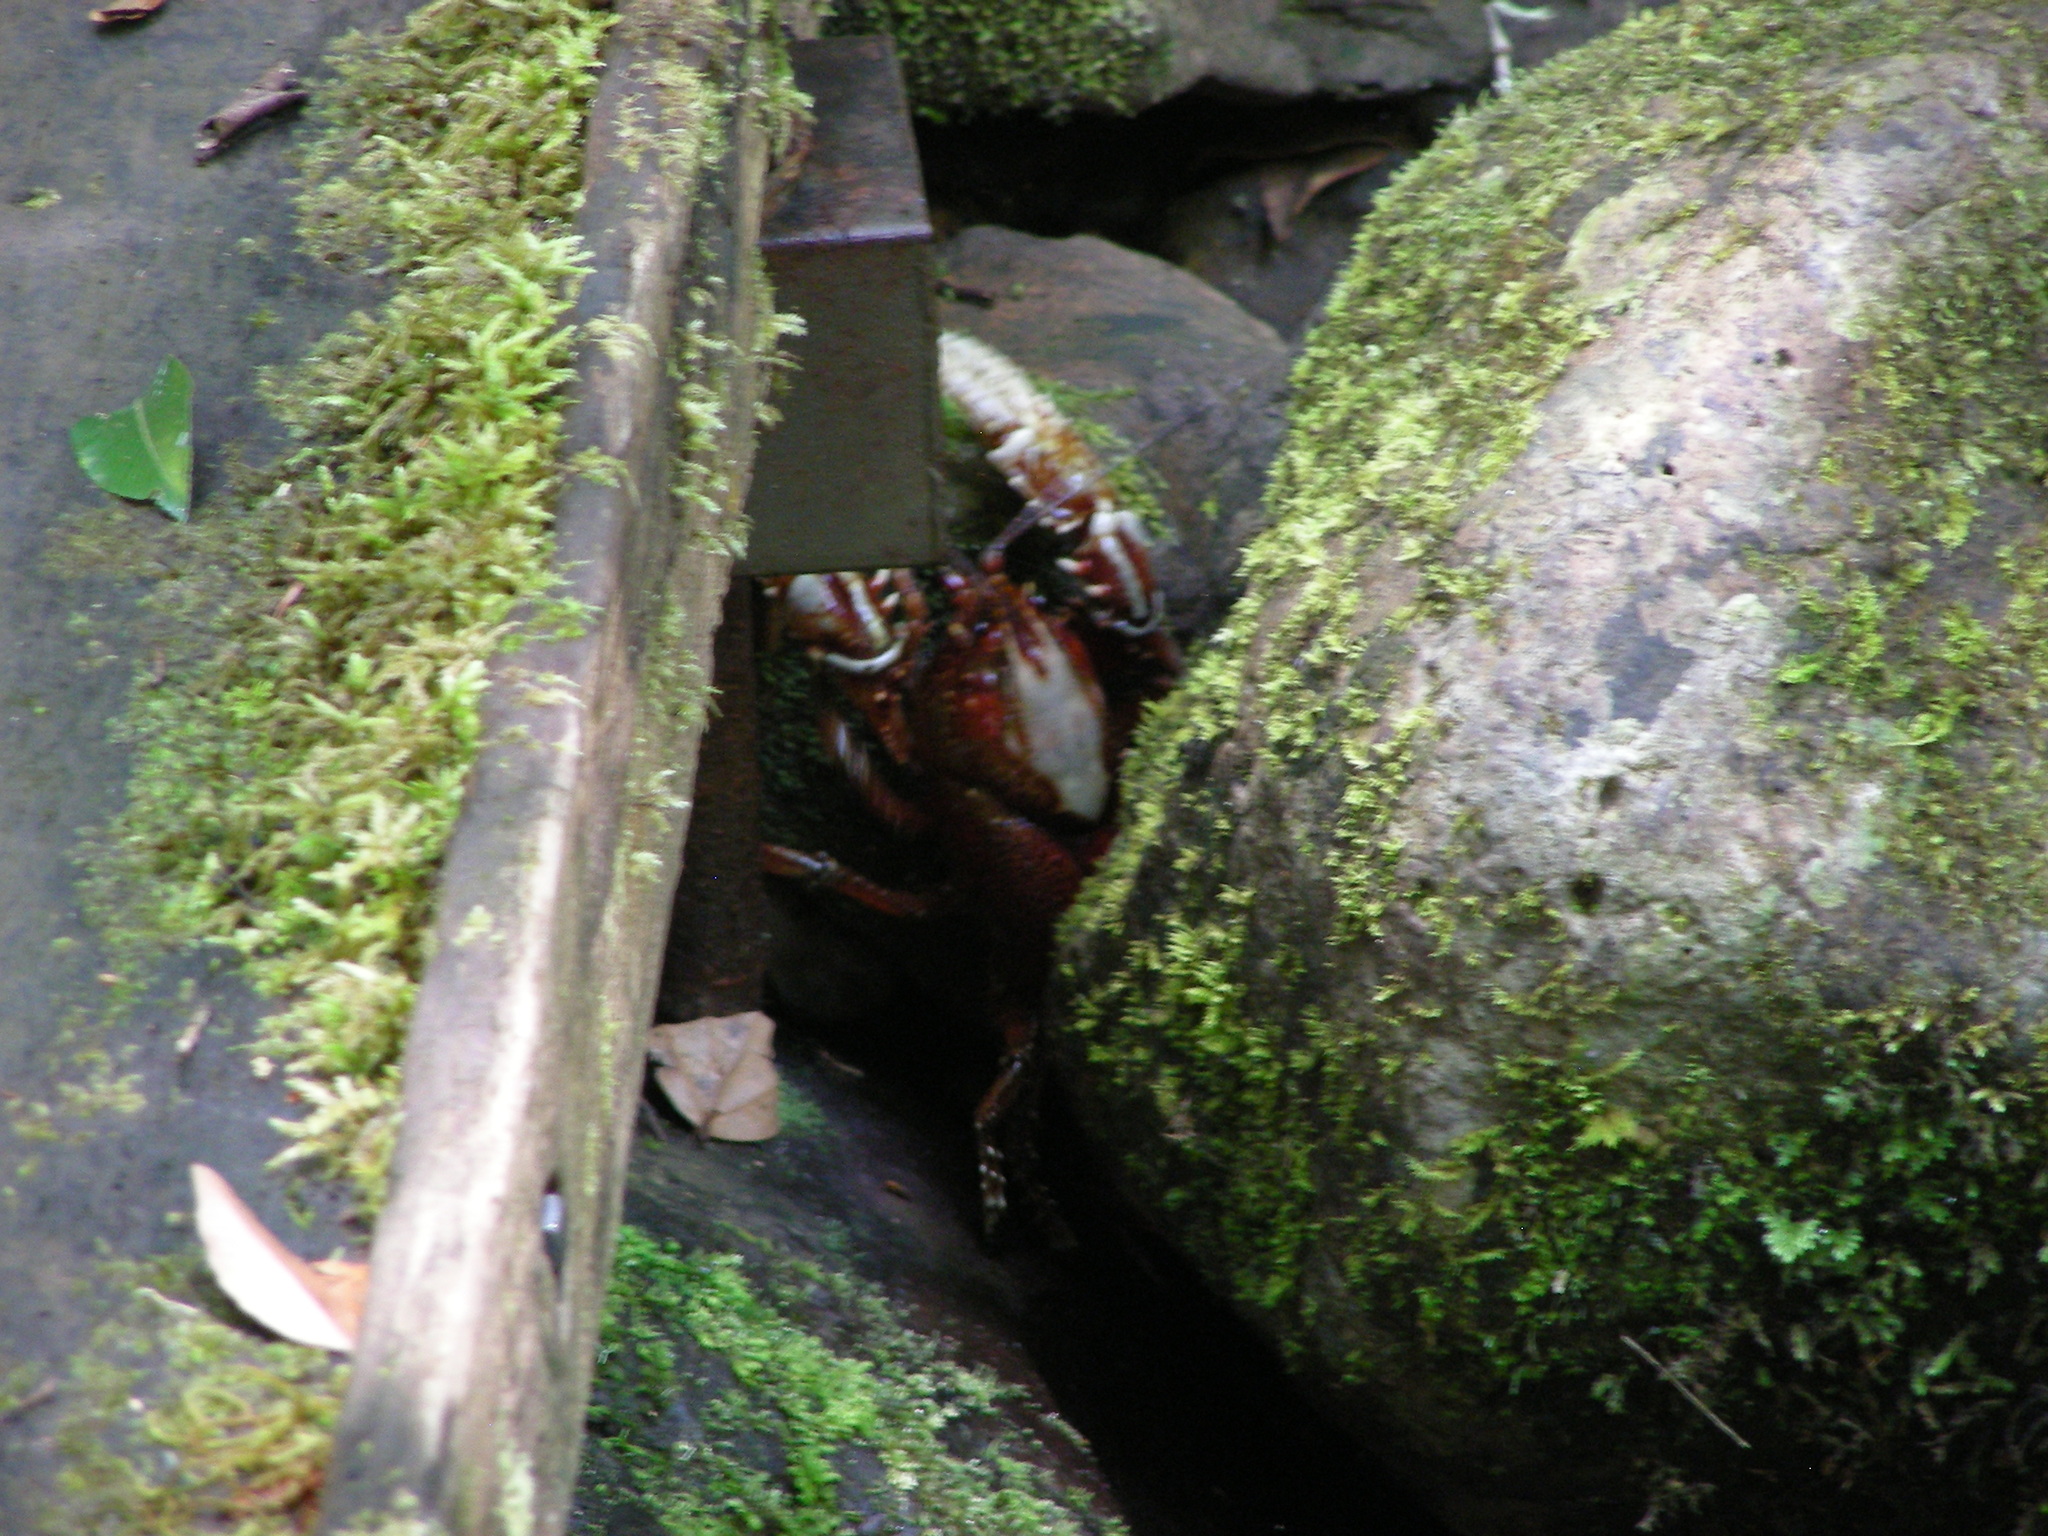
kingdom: Animalia
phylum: Arthropoda
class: Malacostraca
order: Decapoda
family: Parastacidae
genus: Euastacus
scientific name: Euastacus sulcatus
